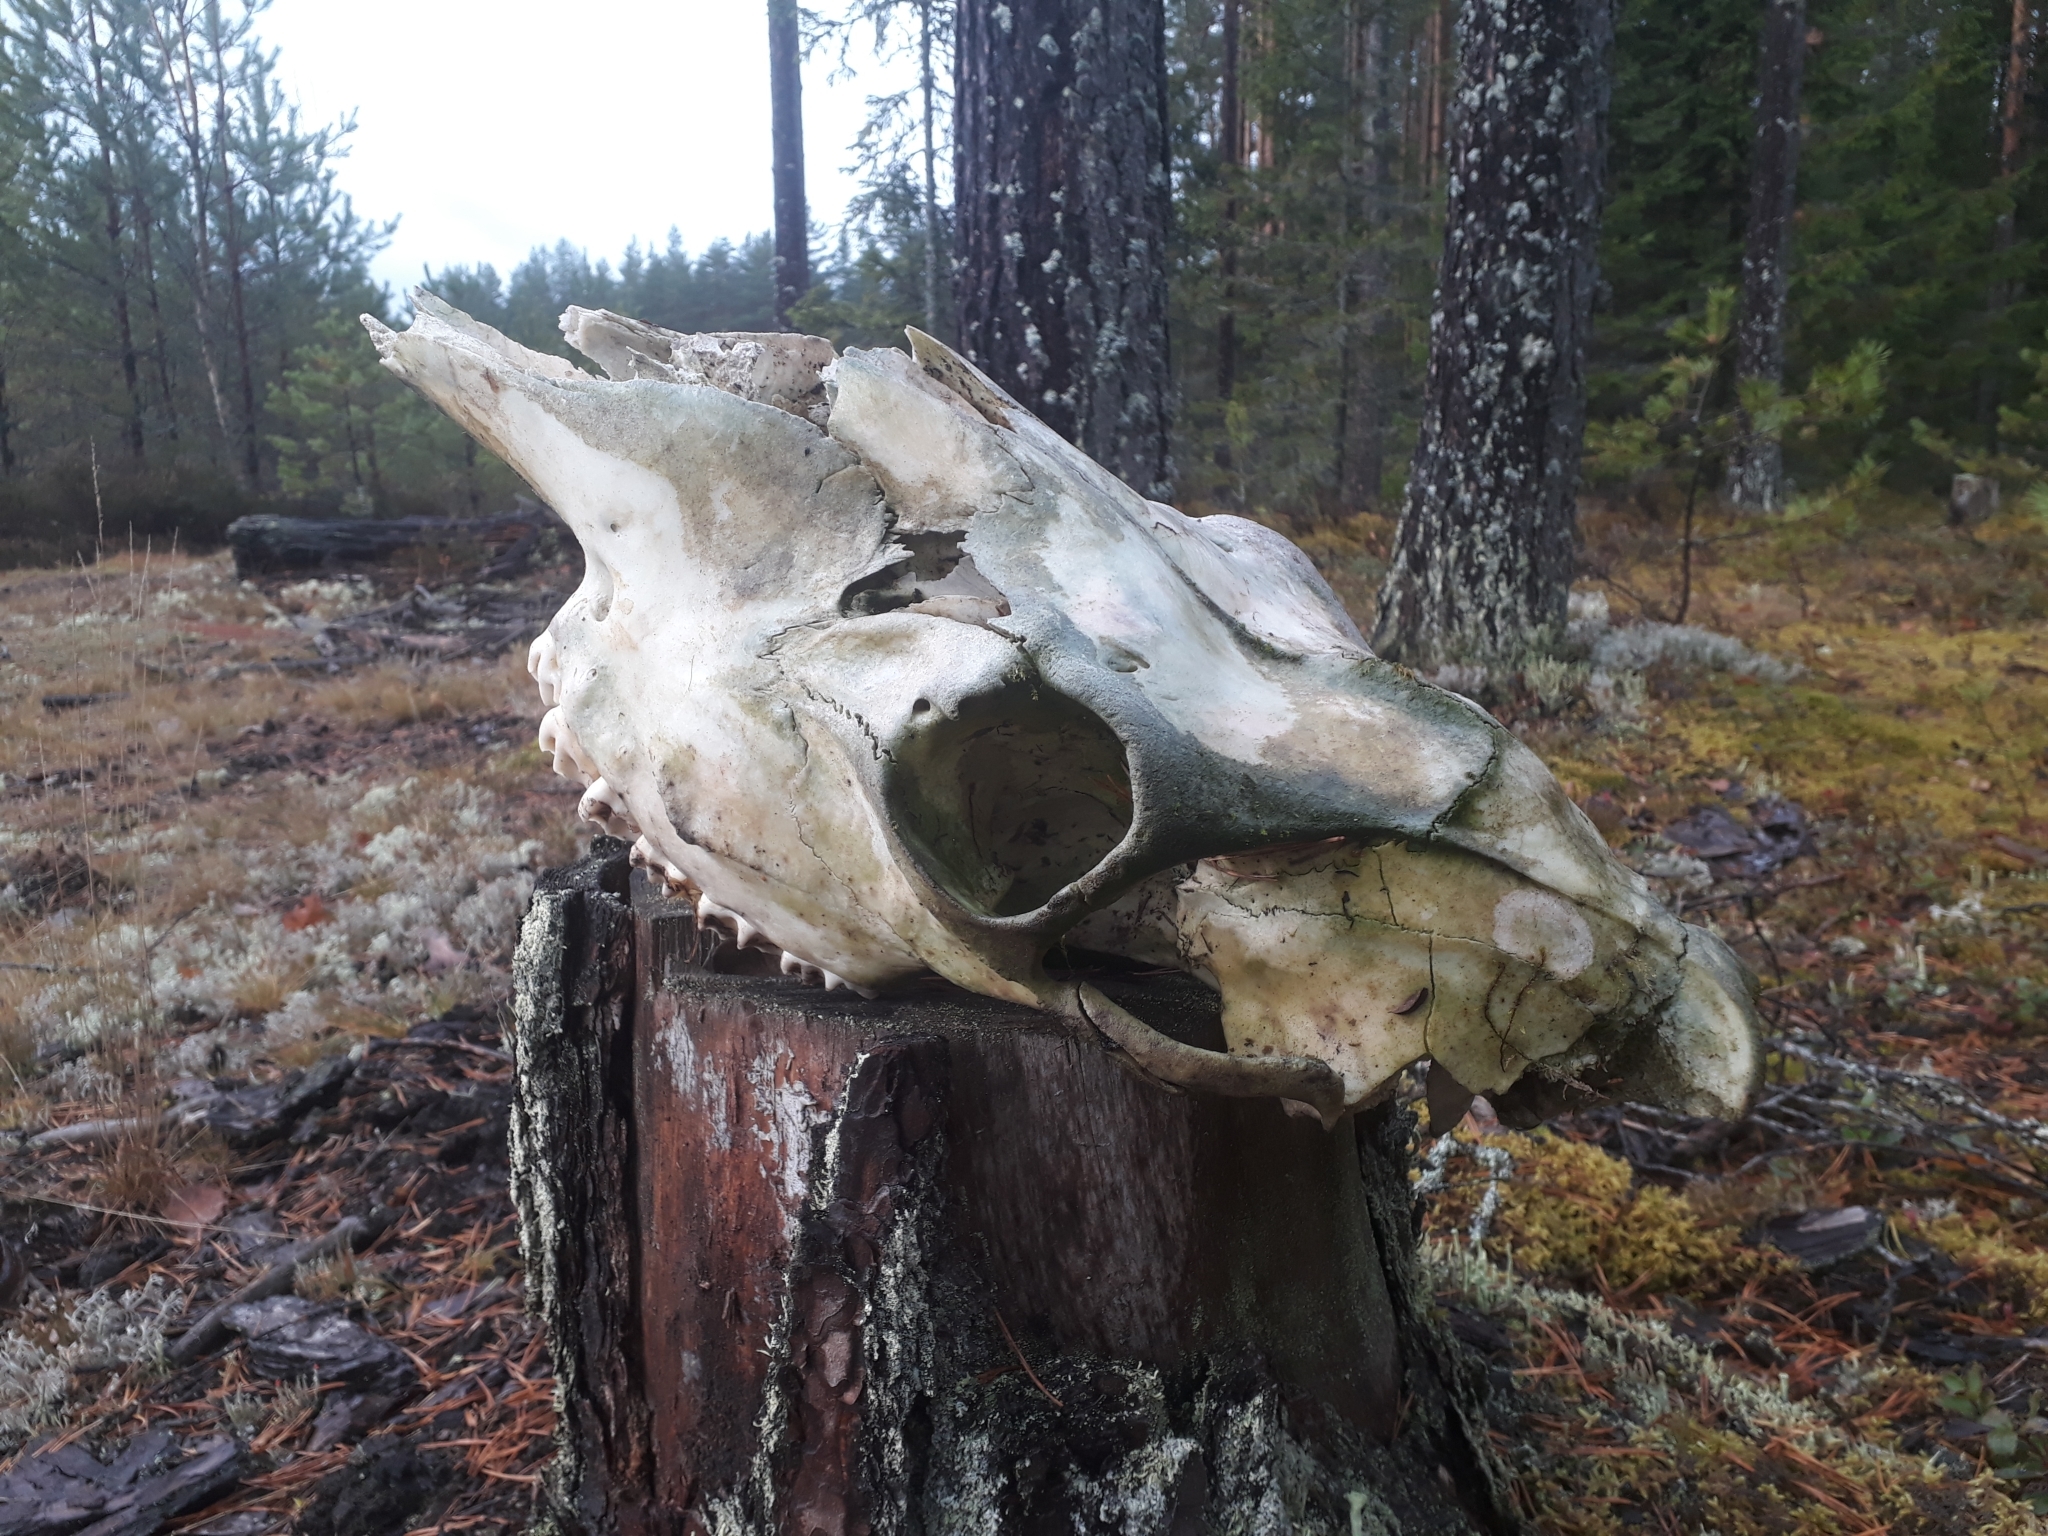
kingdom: Animalia
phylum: Chordata
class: Mammalia
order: Artiodactyla
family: Cervidae
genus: Alces
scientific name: Alces alces
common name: Moose
